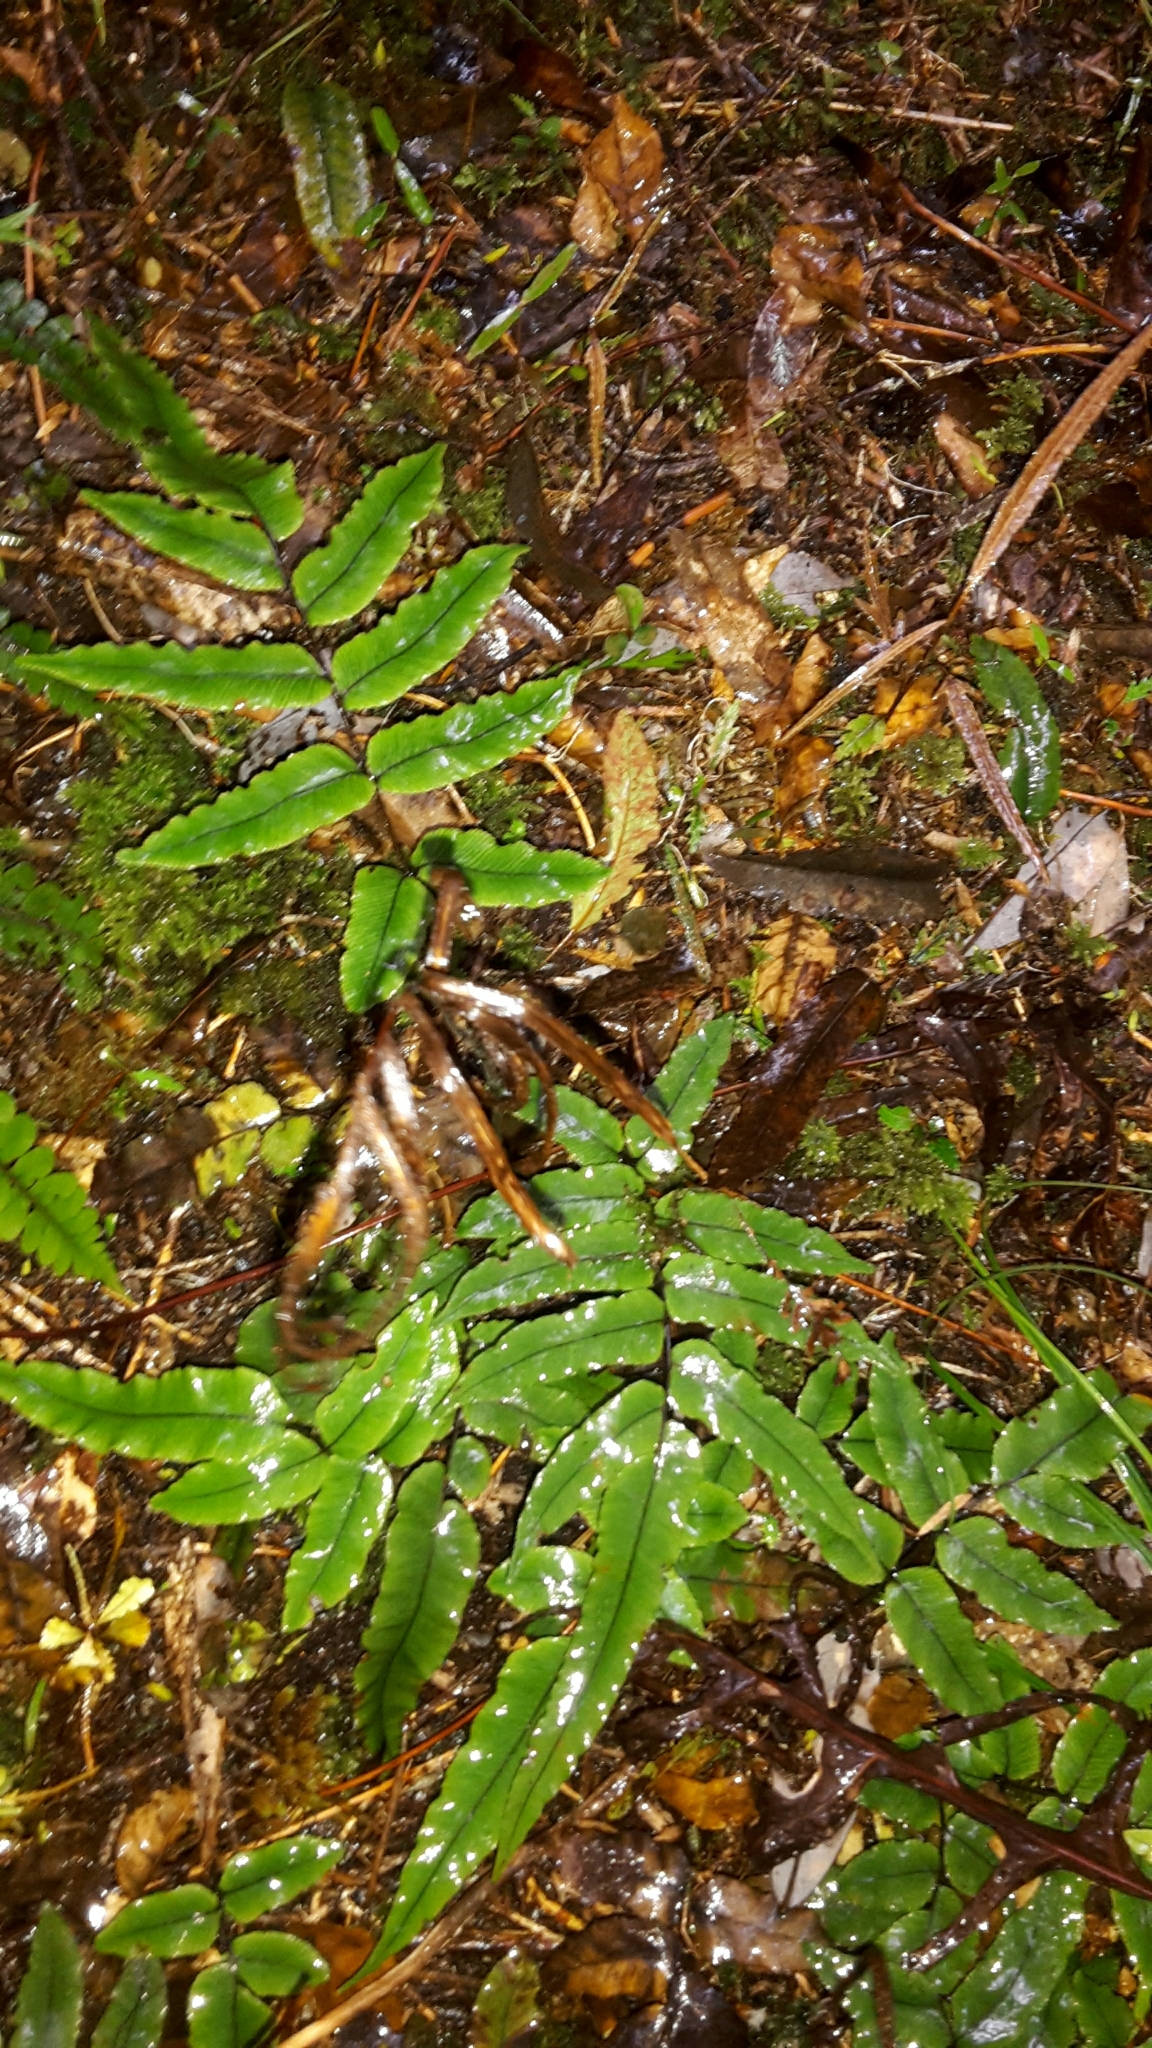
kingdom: Plantae
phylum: Tracheophyta
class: Polypodiopsida
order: Polypodiales
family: Blechnaceae
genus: Parablechnum
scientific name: Parablechnum procerum
